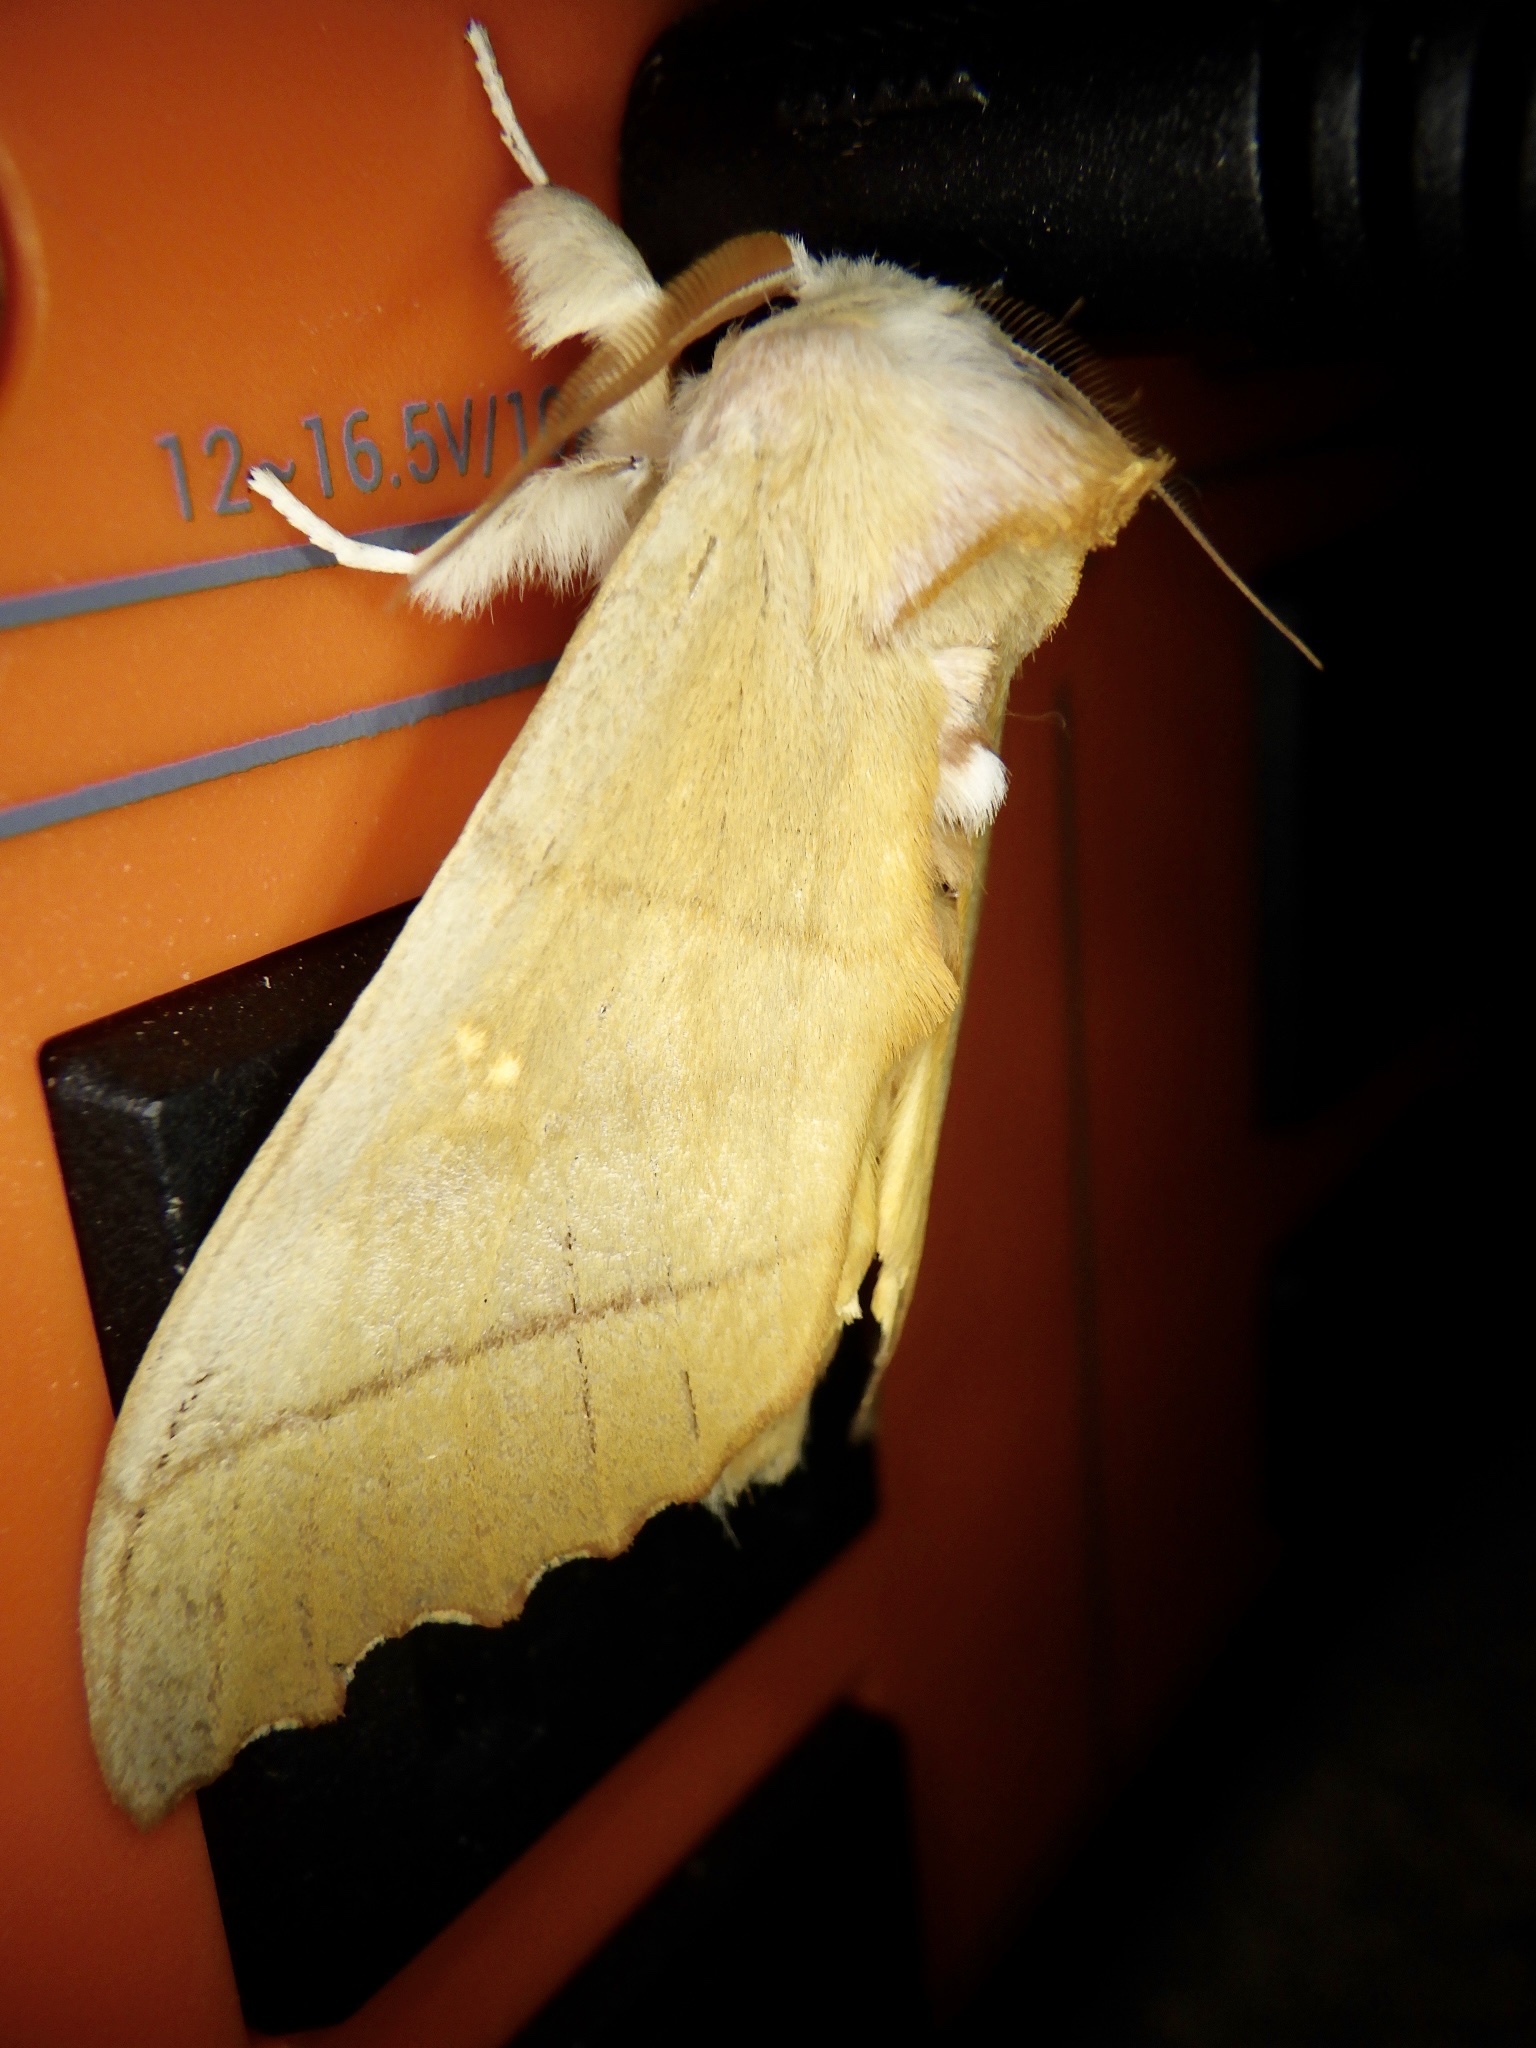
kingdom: Animalia
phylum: Arthropoda
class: Insecta
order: Lepidoptera
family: Notodontidae
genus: Euhampsonia
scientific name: Euhampsonia cristata
